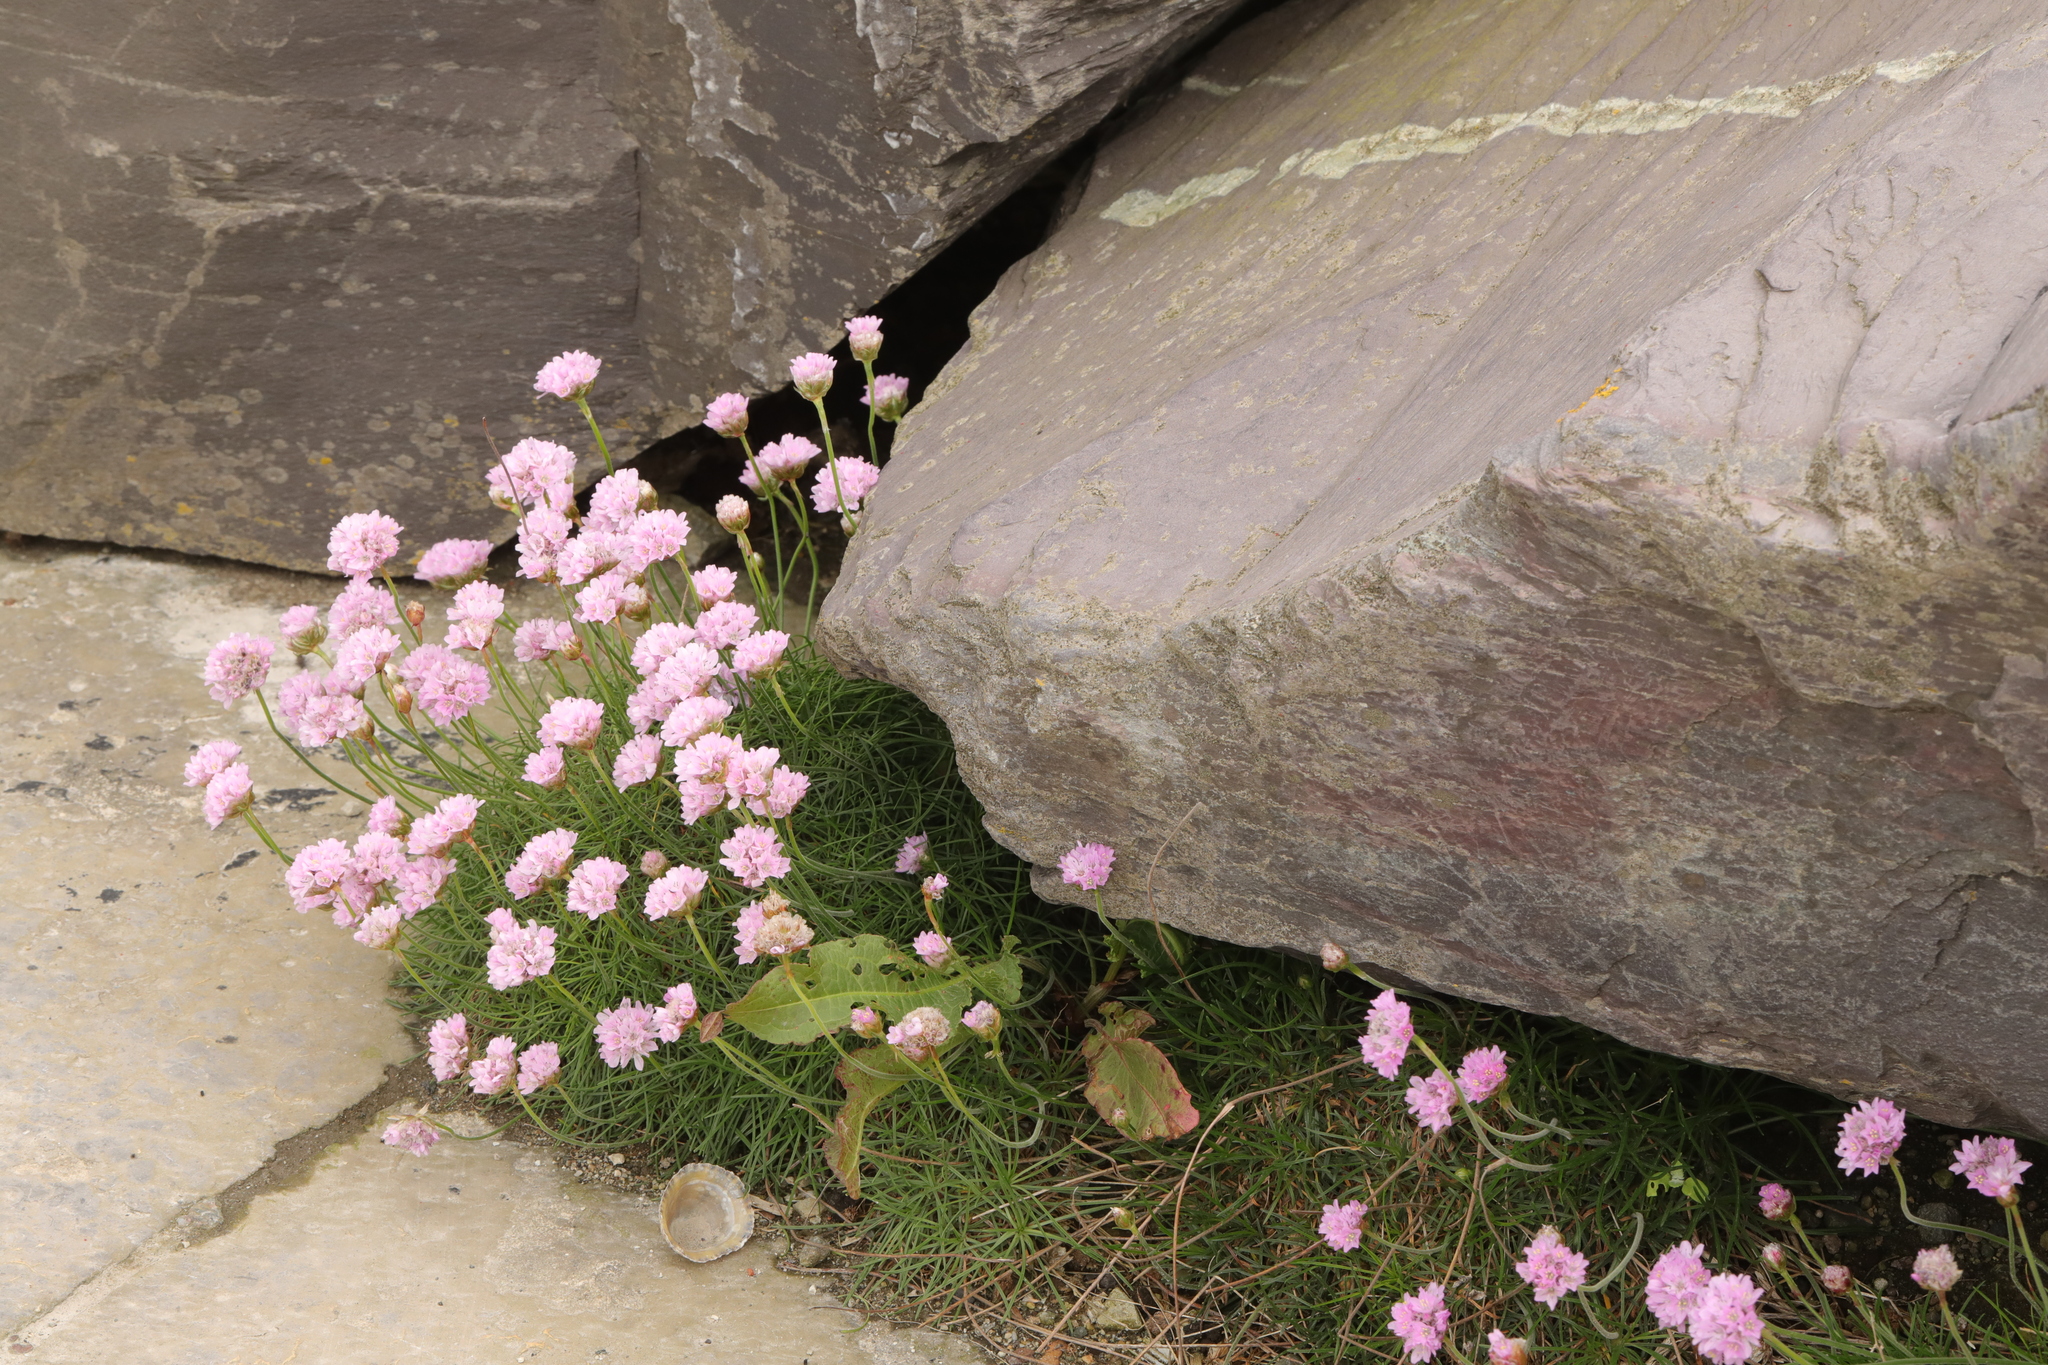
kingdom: Plantae
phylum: Tracheophyta
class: Magnoliopsida
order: Caryophyllales
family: Plumbaginaceae
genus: Armeria
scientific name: Armeria maritima
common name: Thrift
